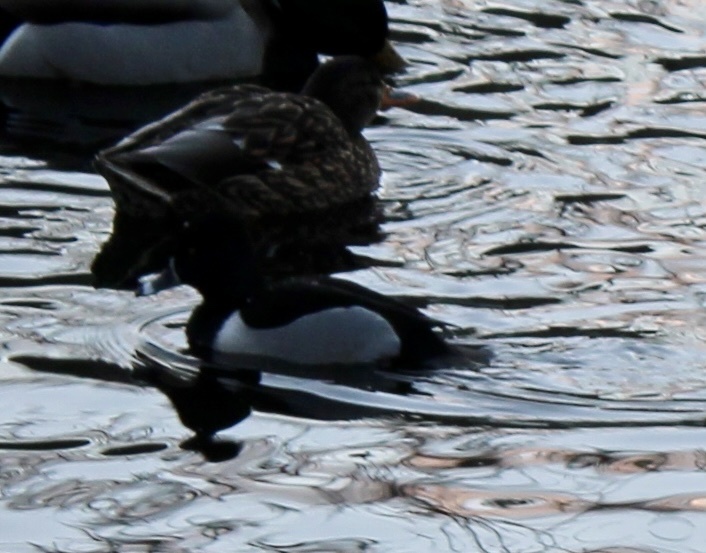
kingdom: Animalia
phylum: Chordata
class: Aves
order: Anseriformes
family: Anatidae
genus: Aythya
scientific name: Aythya collaris
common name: Ring-necked duck
